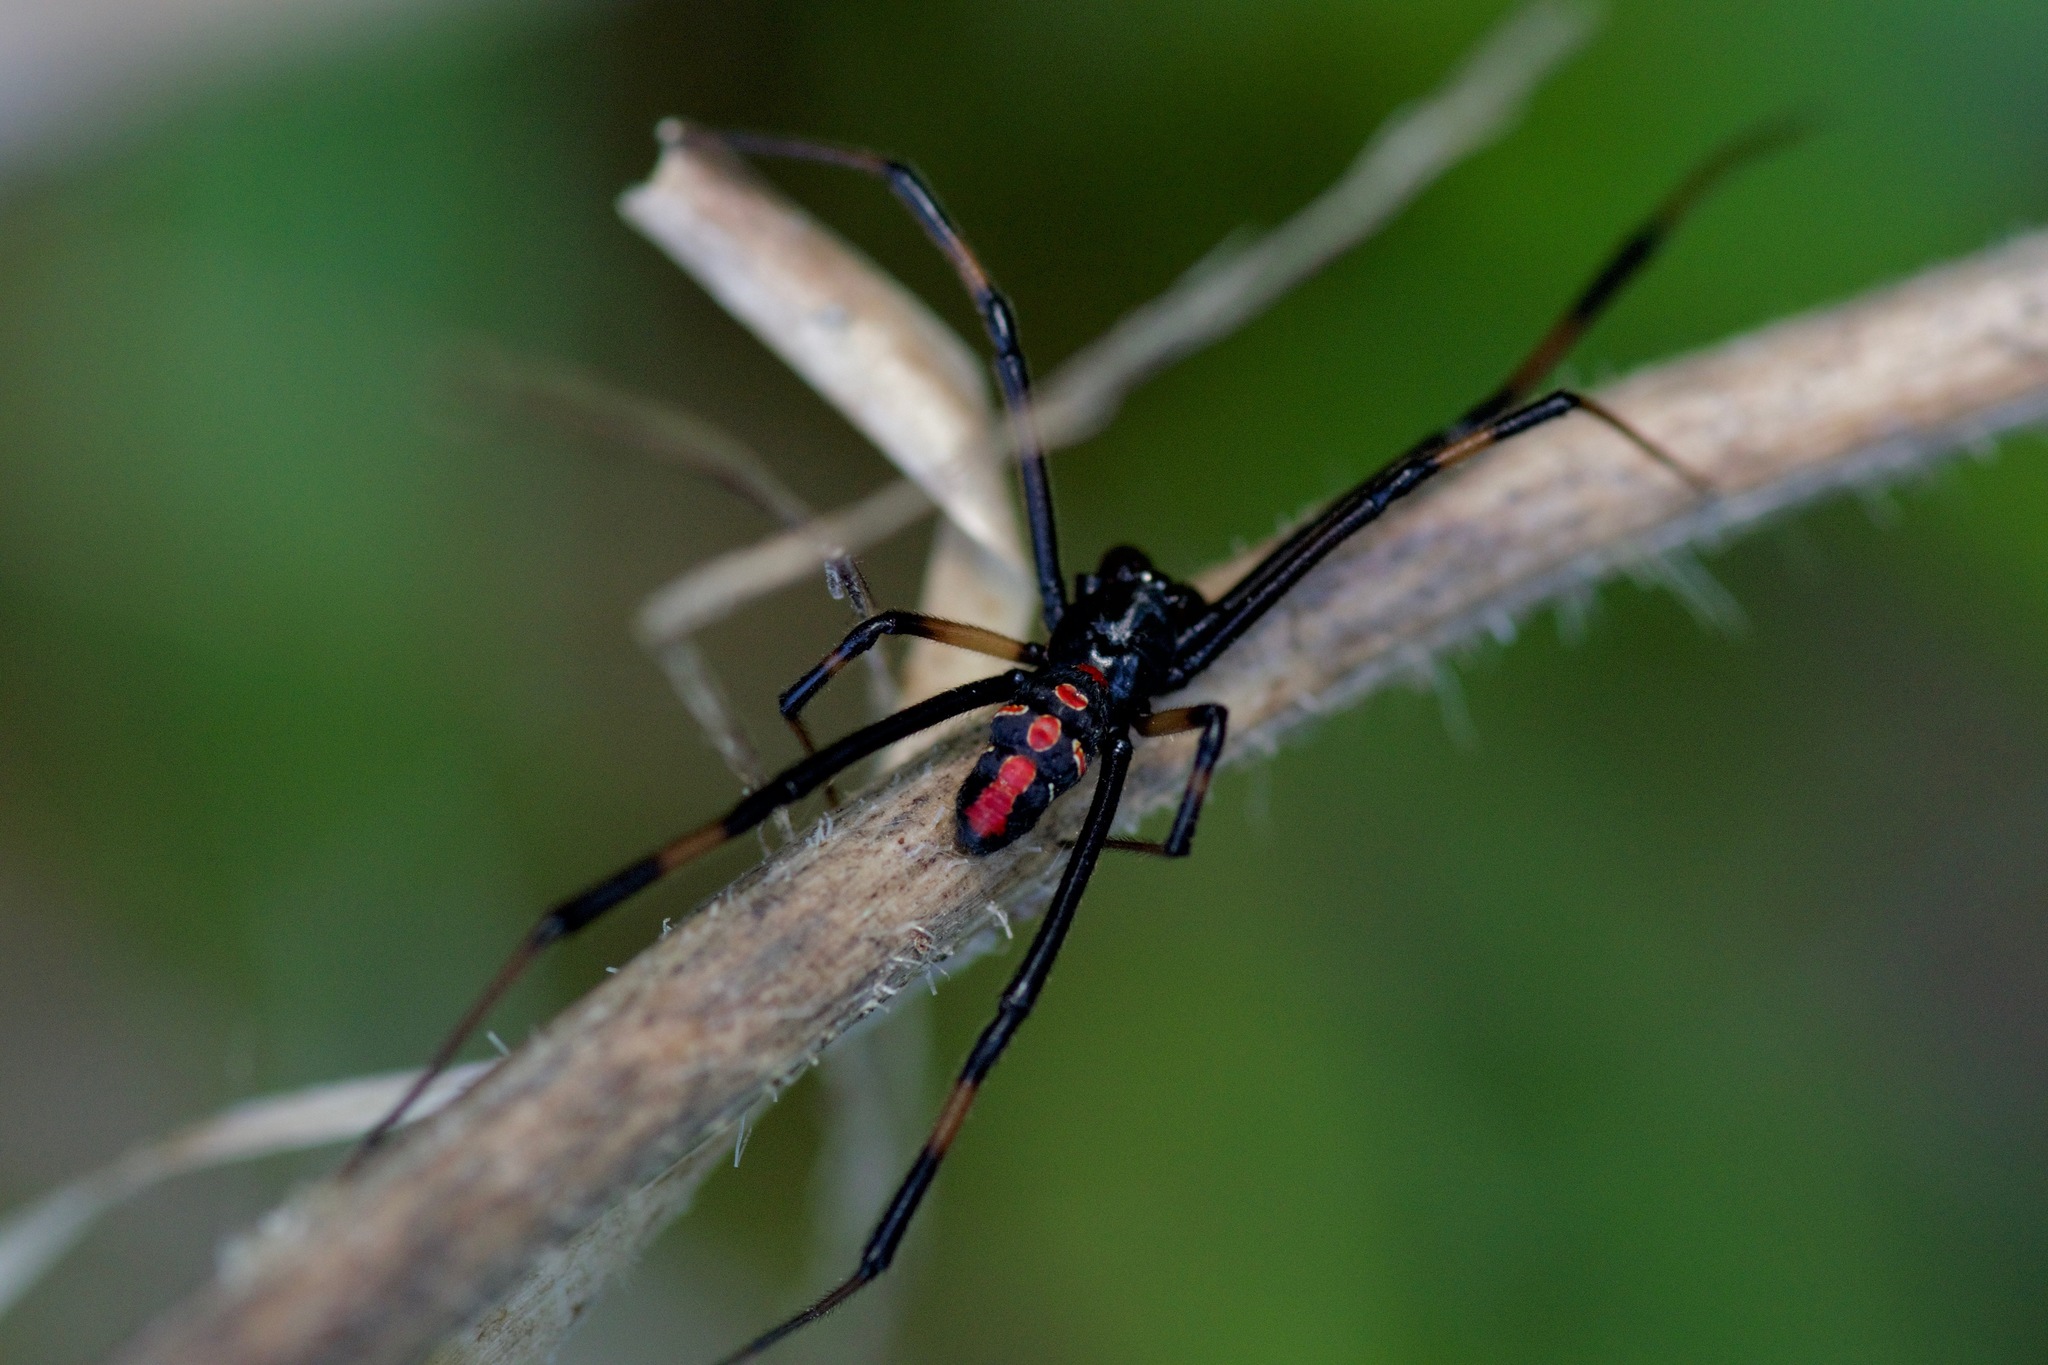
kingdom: Animalia
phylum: Arthropoda
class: Arachnida
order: Araneae
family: Theridiidae
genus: Latrodectus
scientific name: Latrodectus mactans
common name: Cobweb spiders
